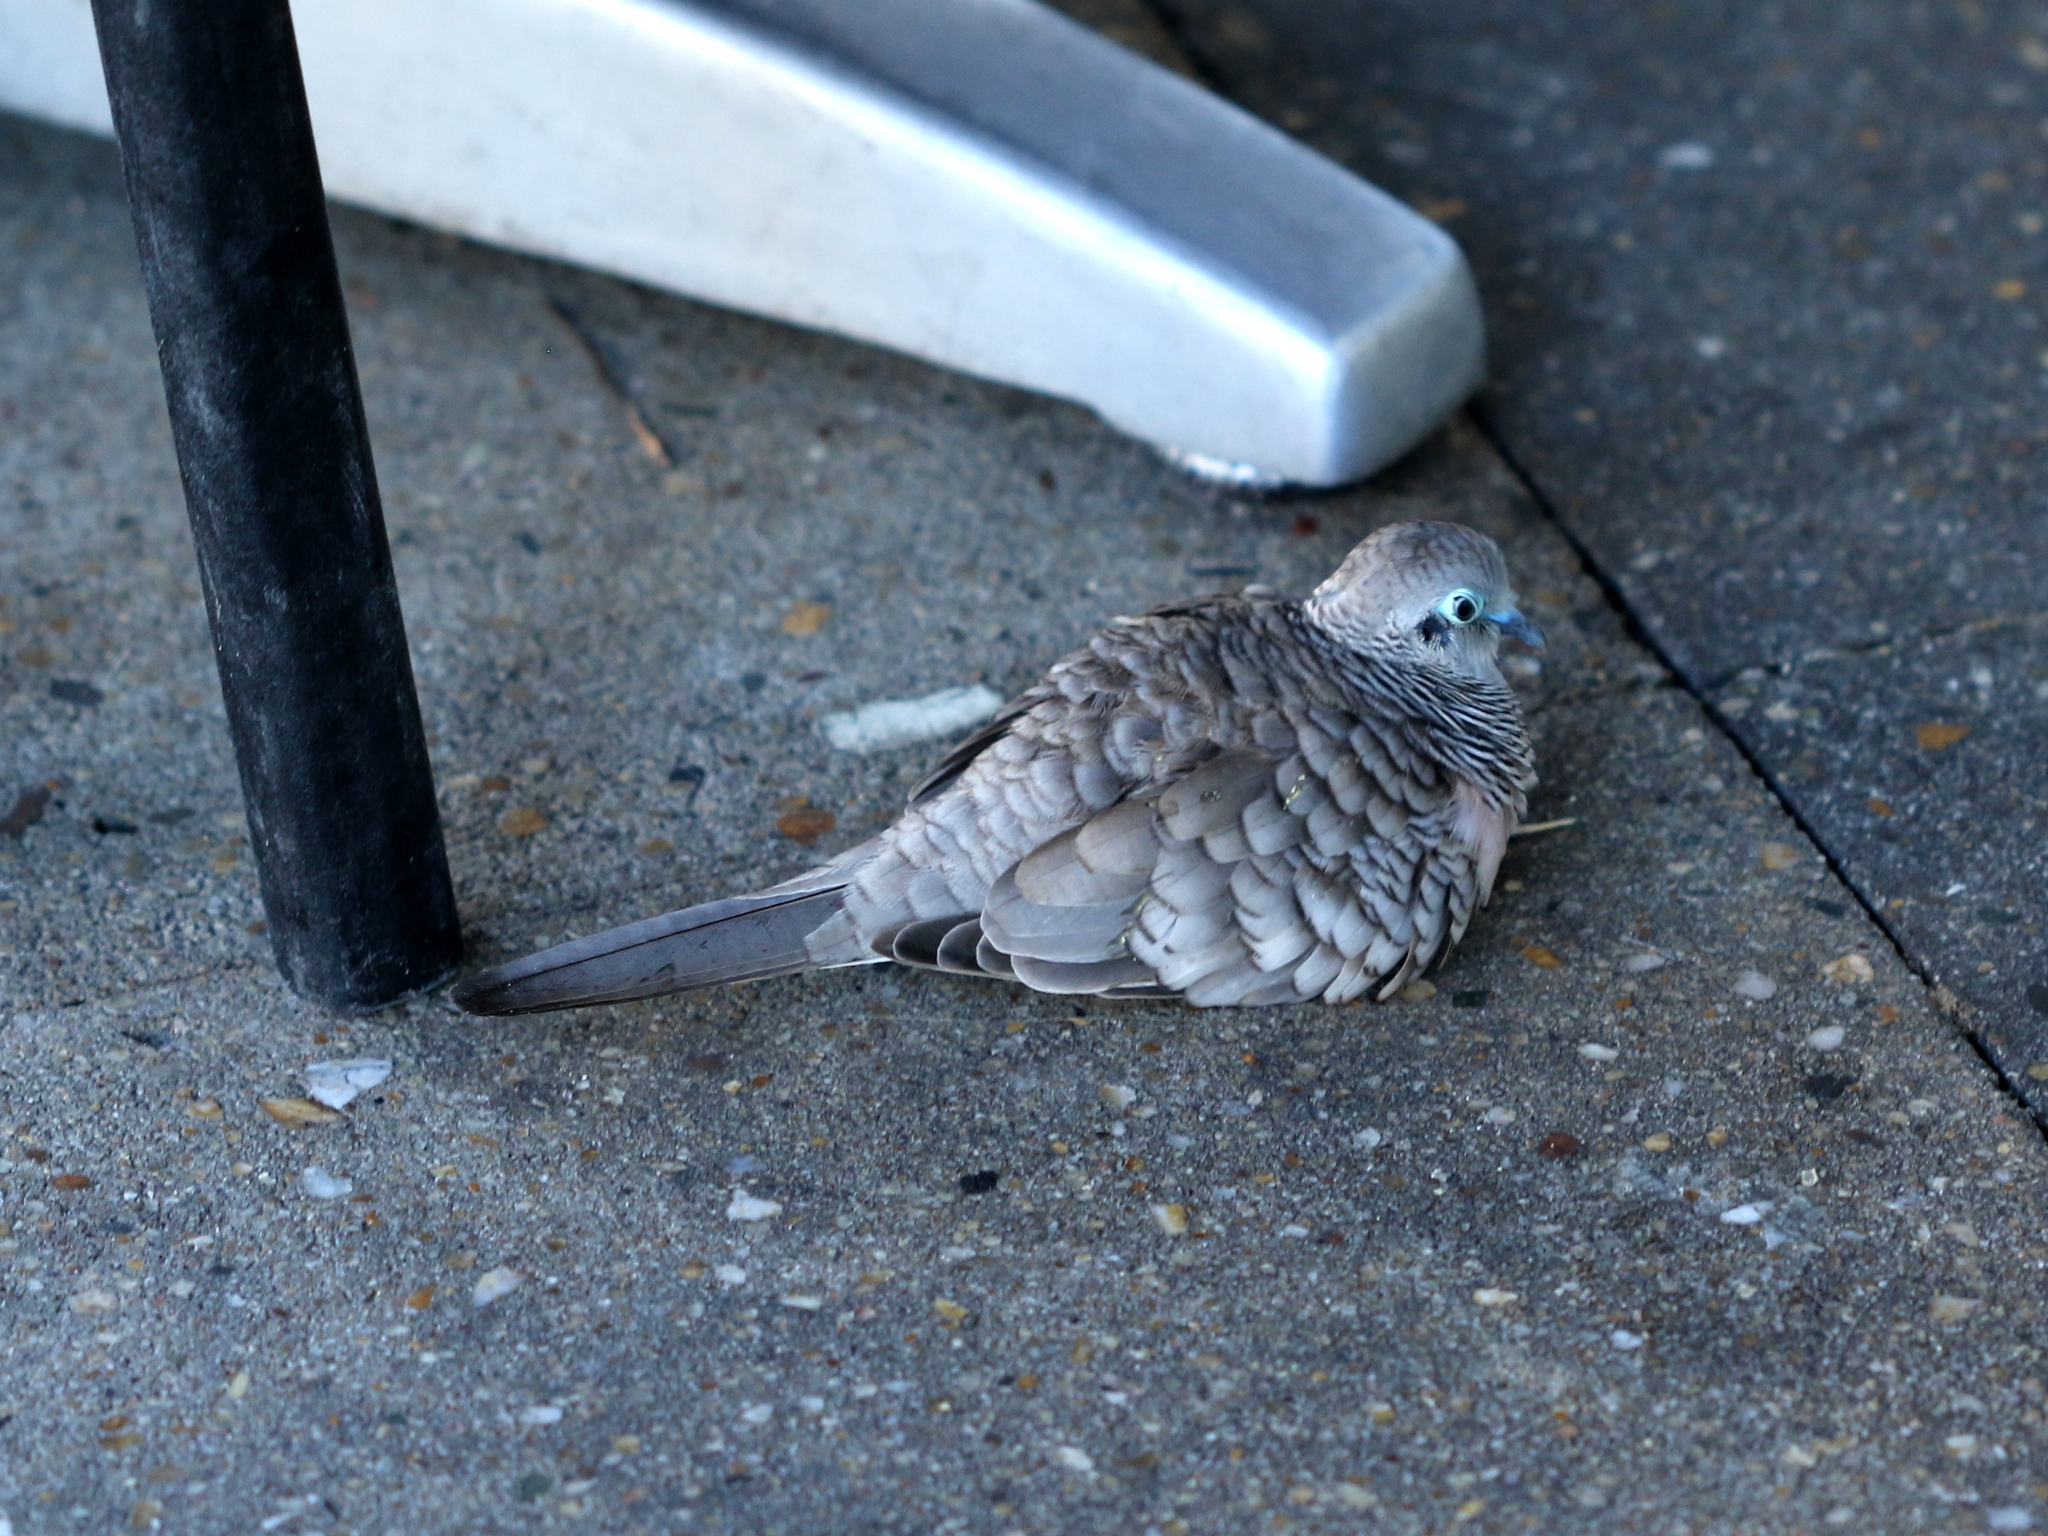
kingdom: Animalia
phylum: Chordata
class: Aves
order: Columbiformes
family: Columbidae
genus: Geopelia
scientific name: Geopelia placida
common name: Peaceful dove
